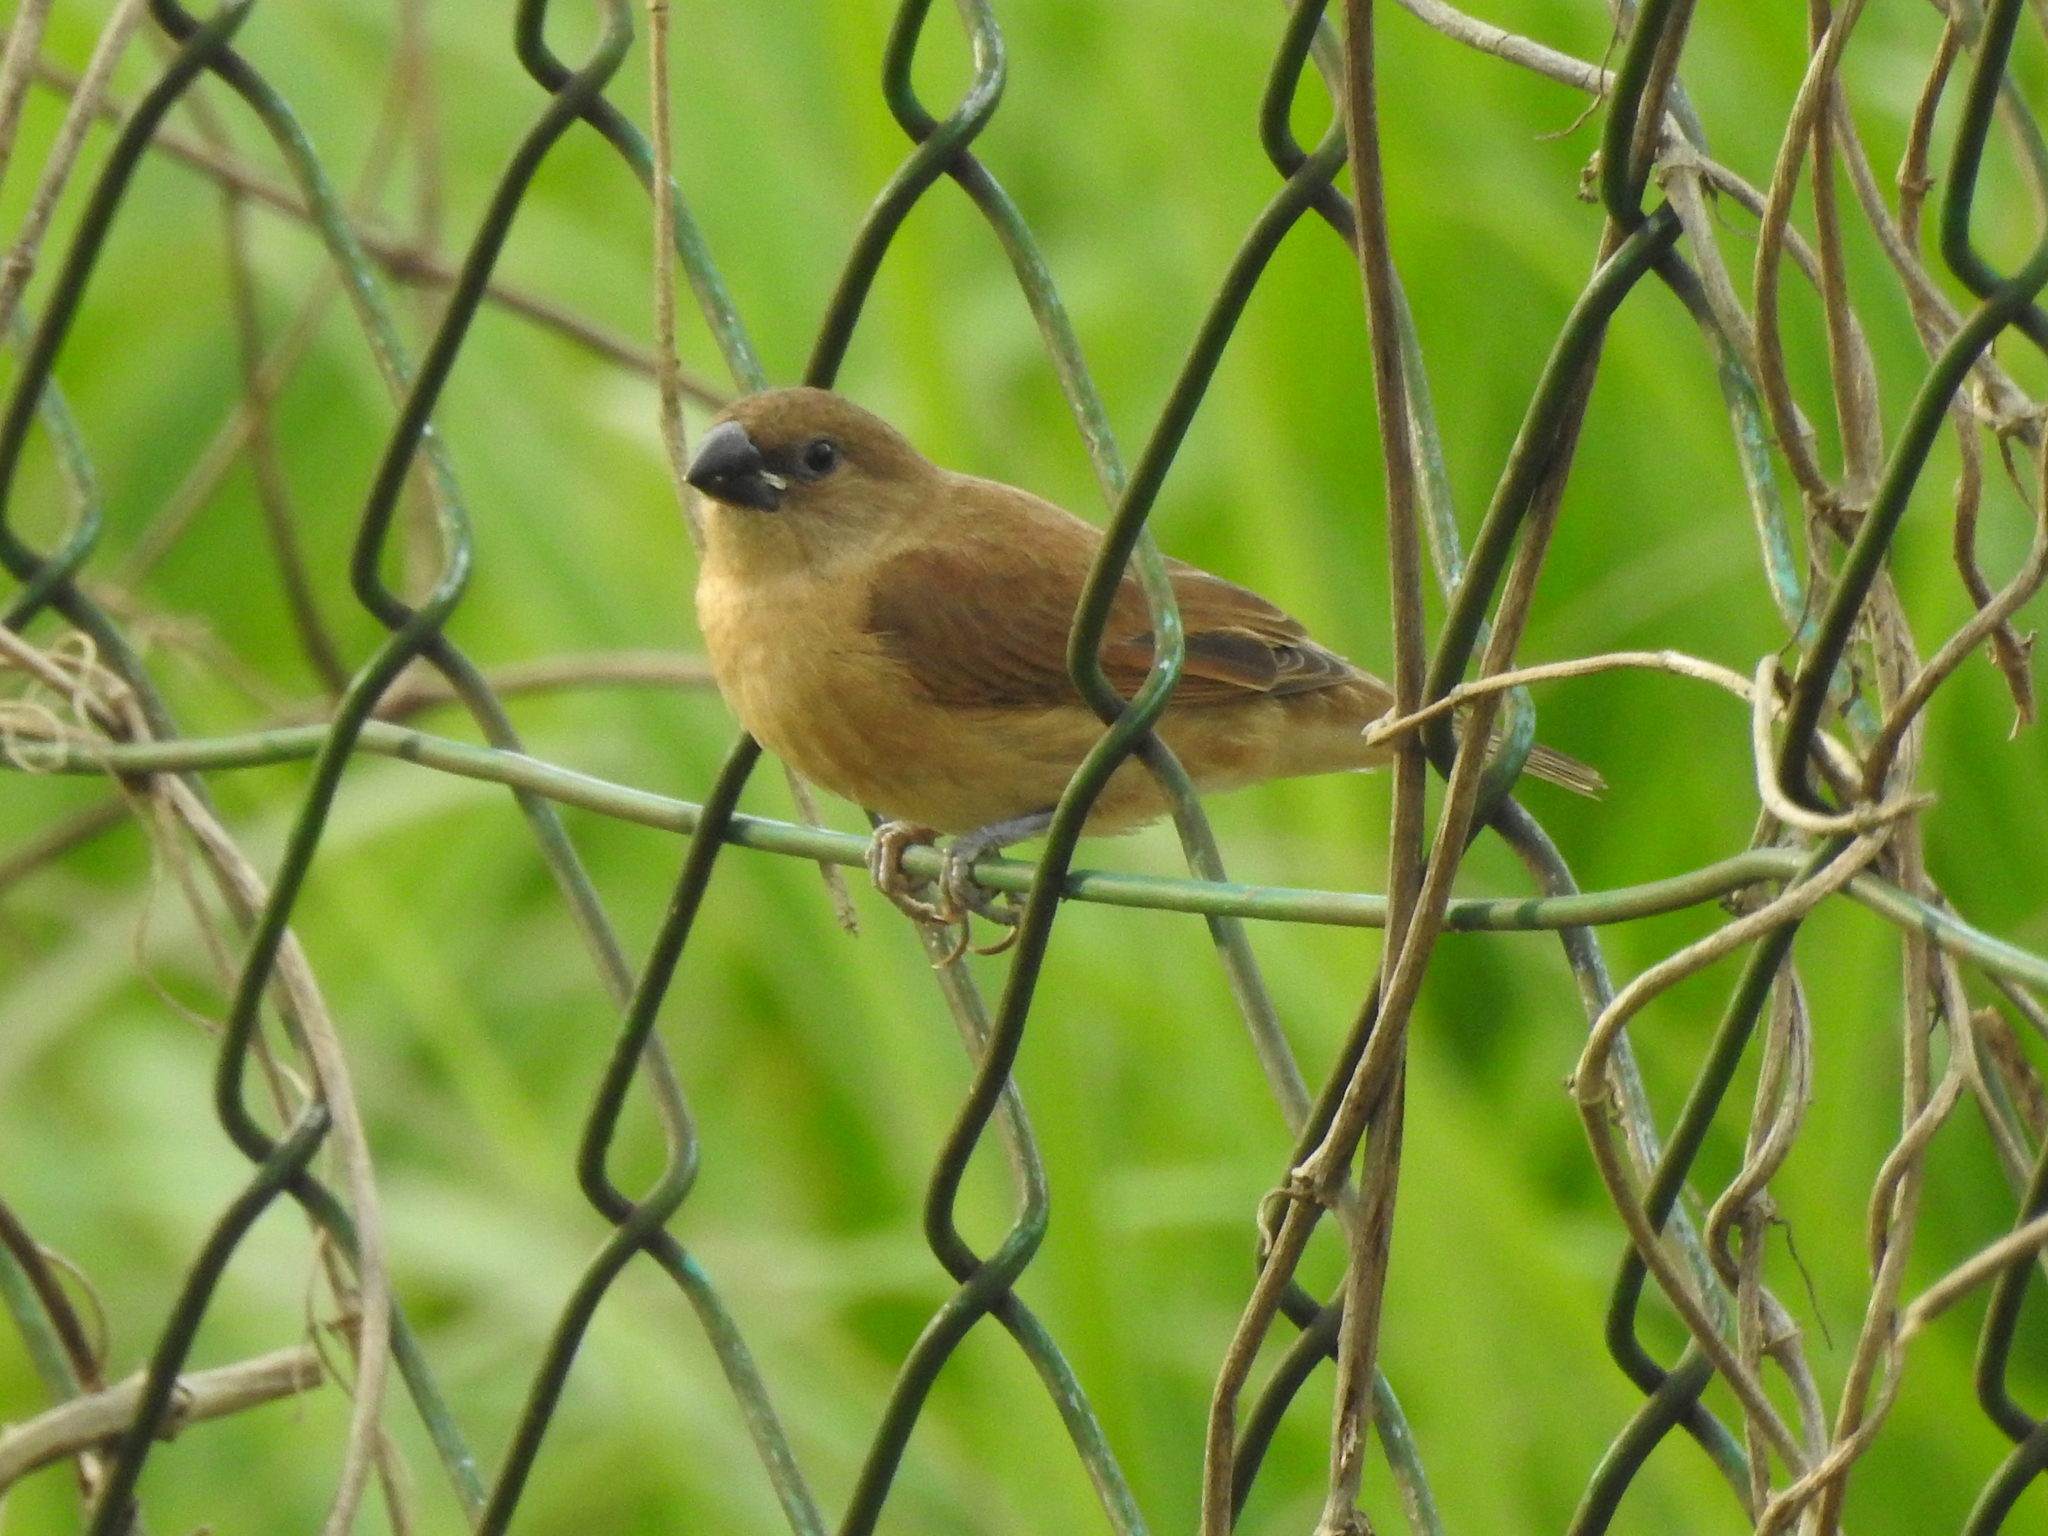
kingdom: Animalia
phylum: Chordata
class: Aves
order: Passeriformes
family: Estrildidae
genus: Lonchura
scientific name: Lonchura punctulata
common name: Scaly-breasted munia
